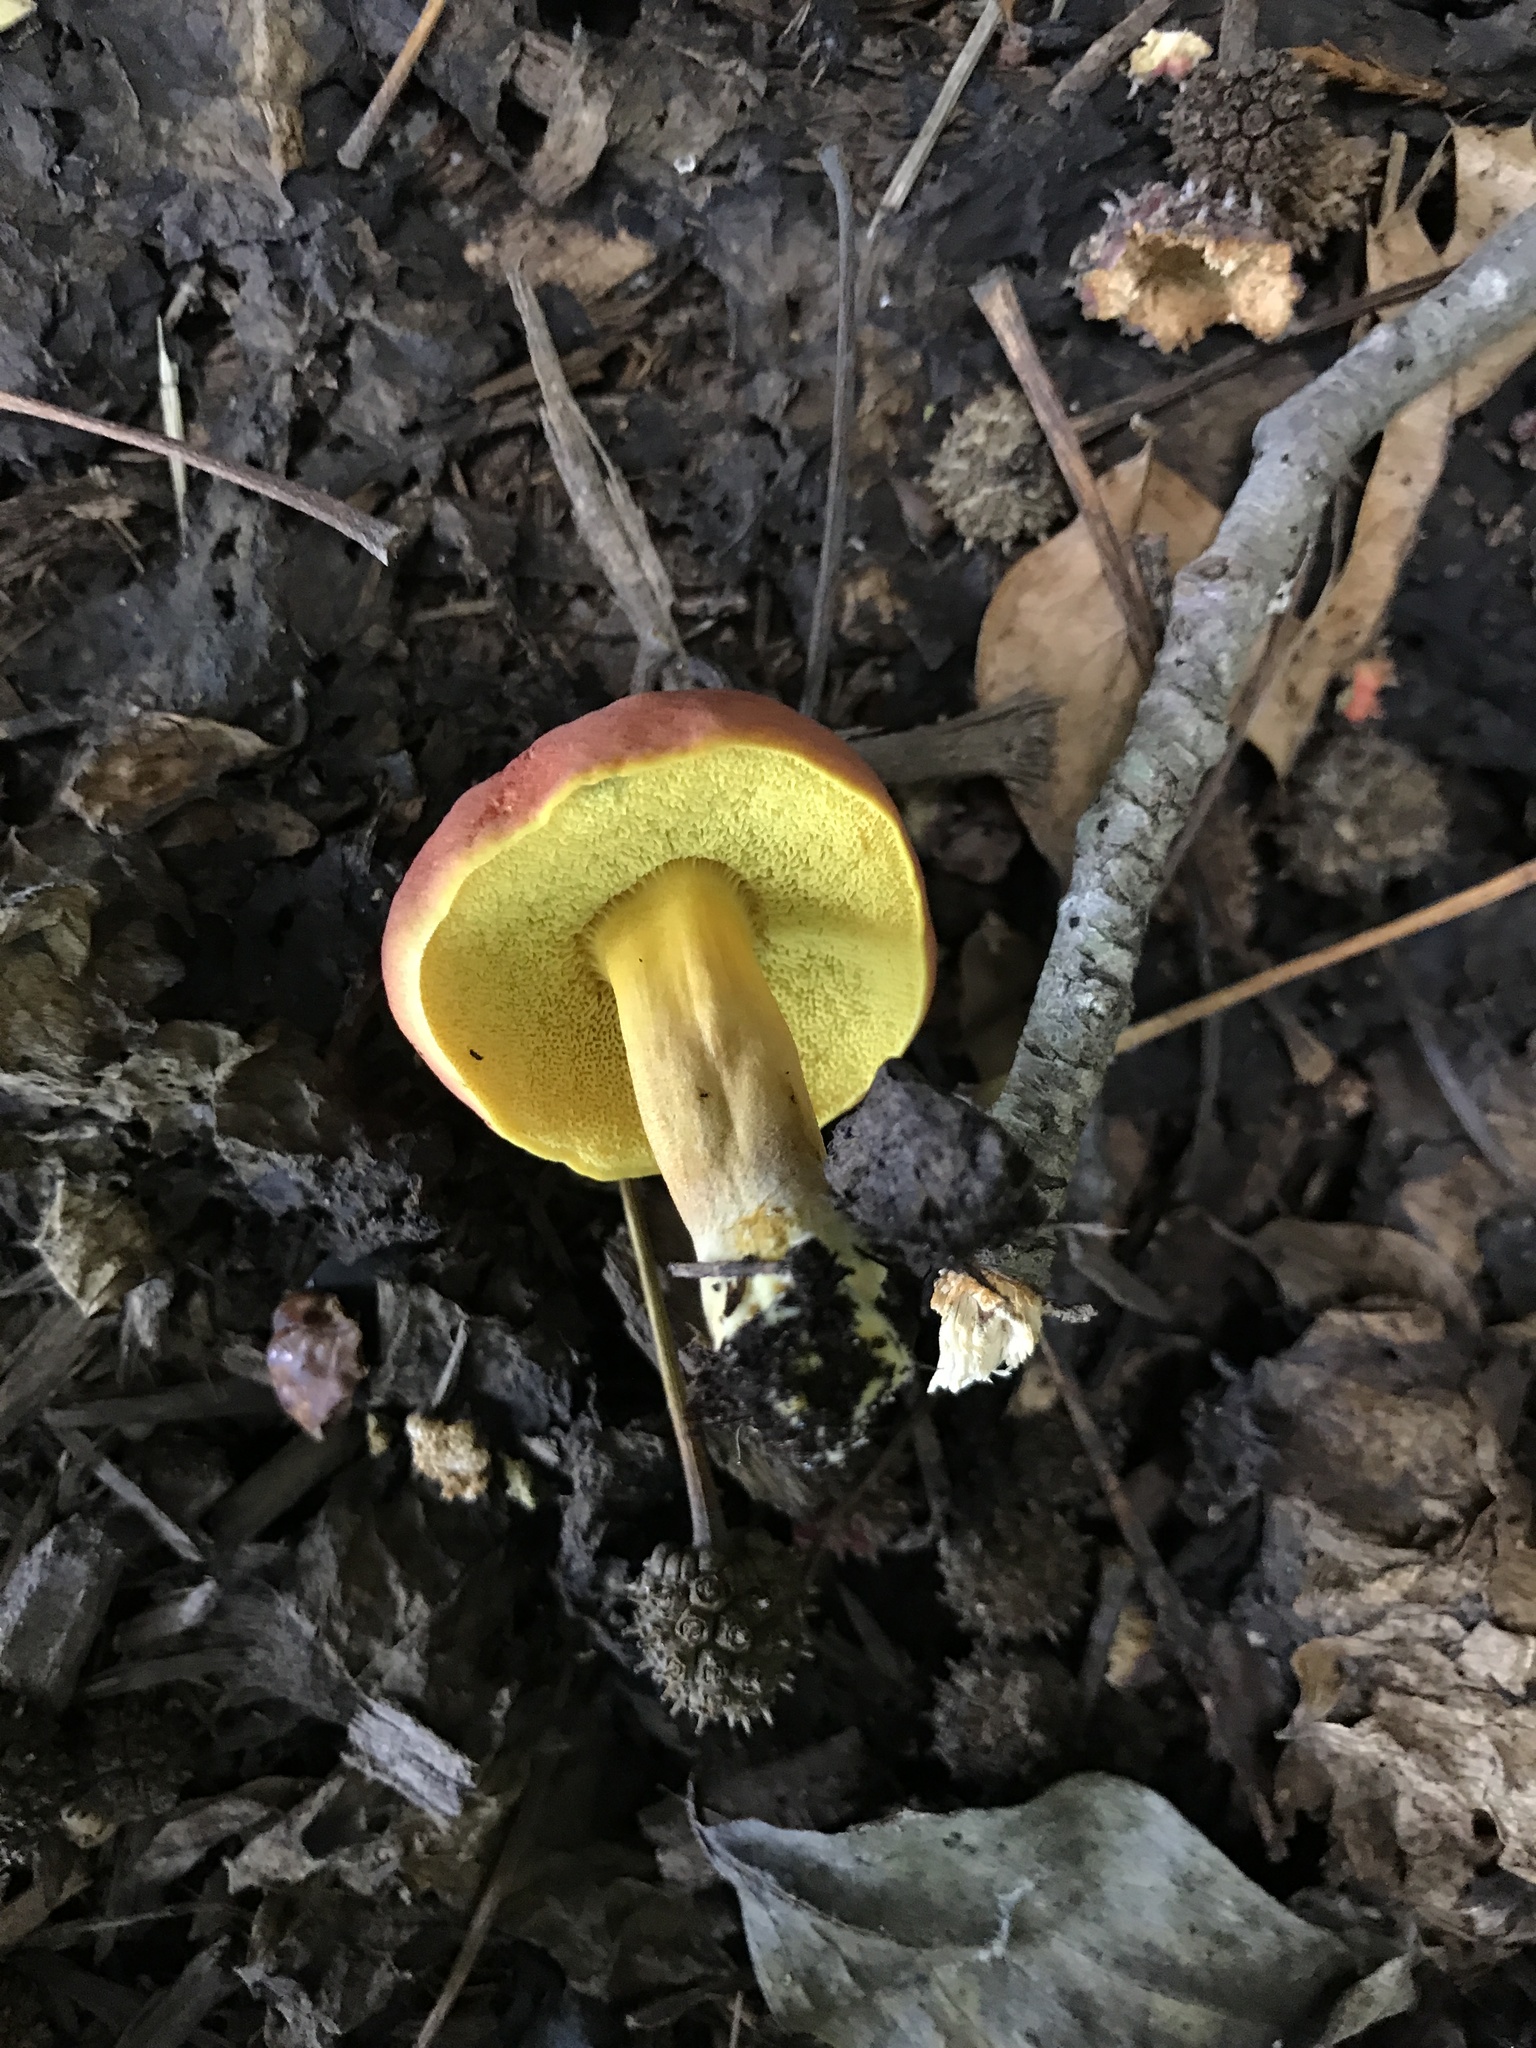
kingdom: Fungi
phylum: Basidiomycota
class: Agaricomycetes
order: Boletales
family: Boletaceae
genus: Hortiboletus
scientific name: Hortiboletus campestris
